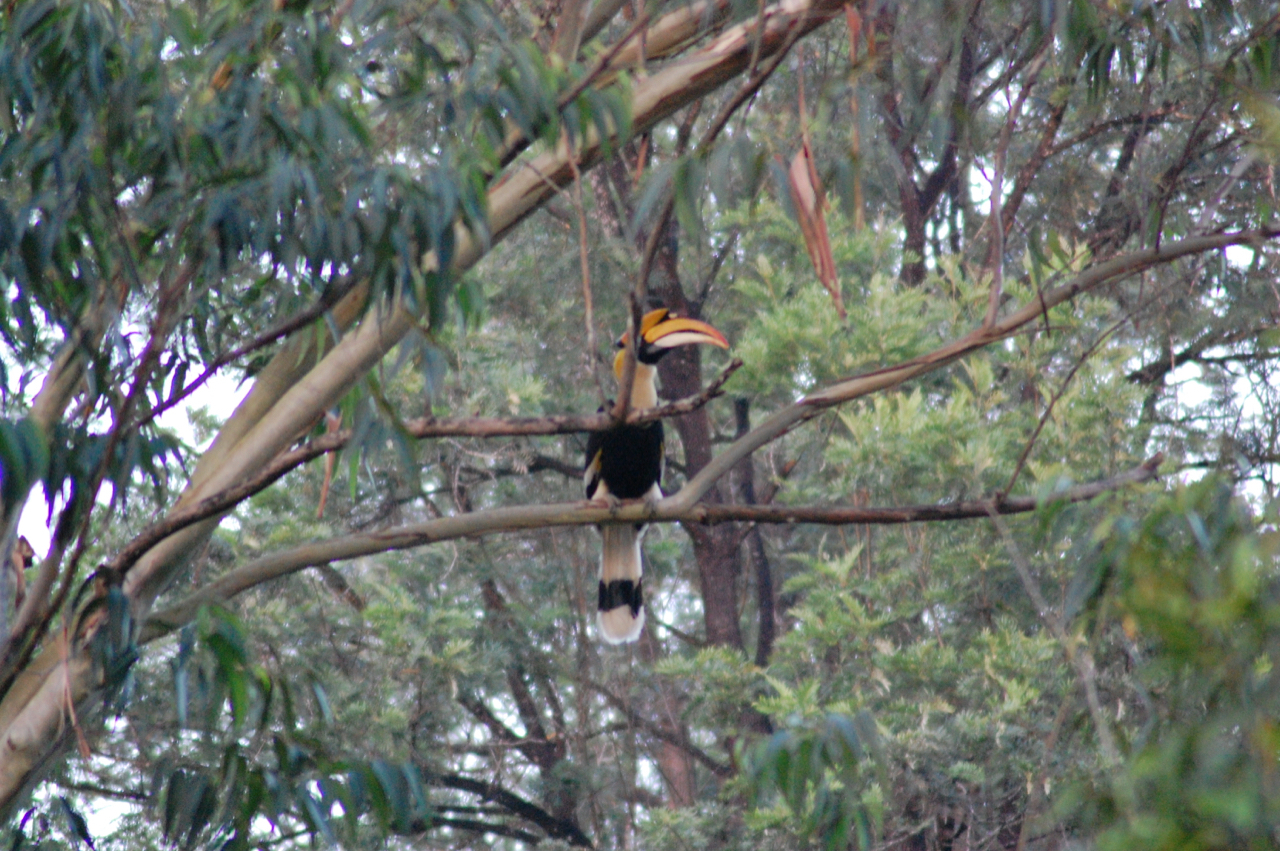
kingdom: Animalia
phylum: Chordata
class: Aves
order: Bucerotiformes
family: Bucerotidae
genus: Buceros
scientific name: Buceros bicornis
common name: Great hornbill
